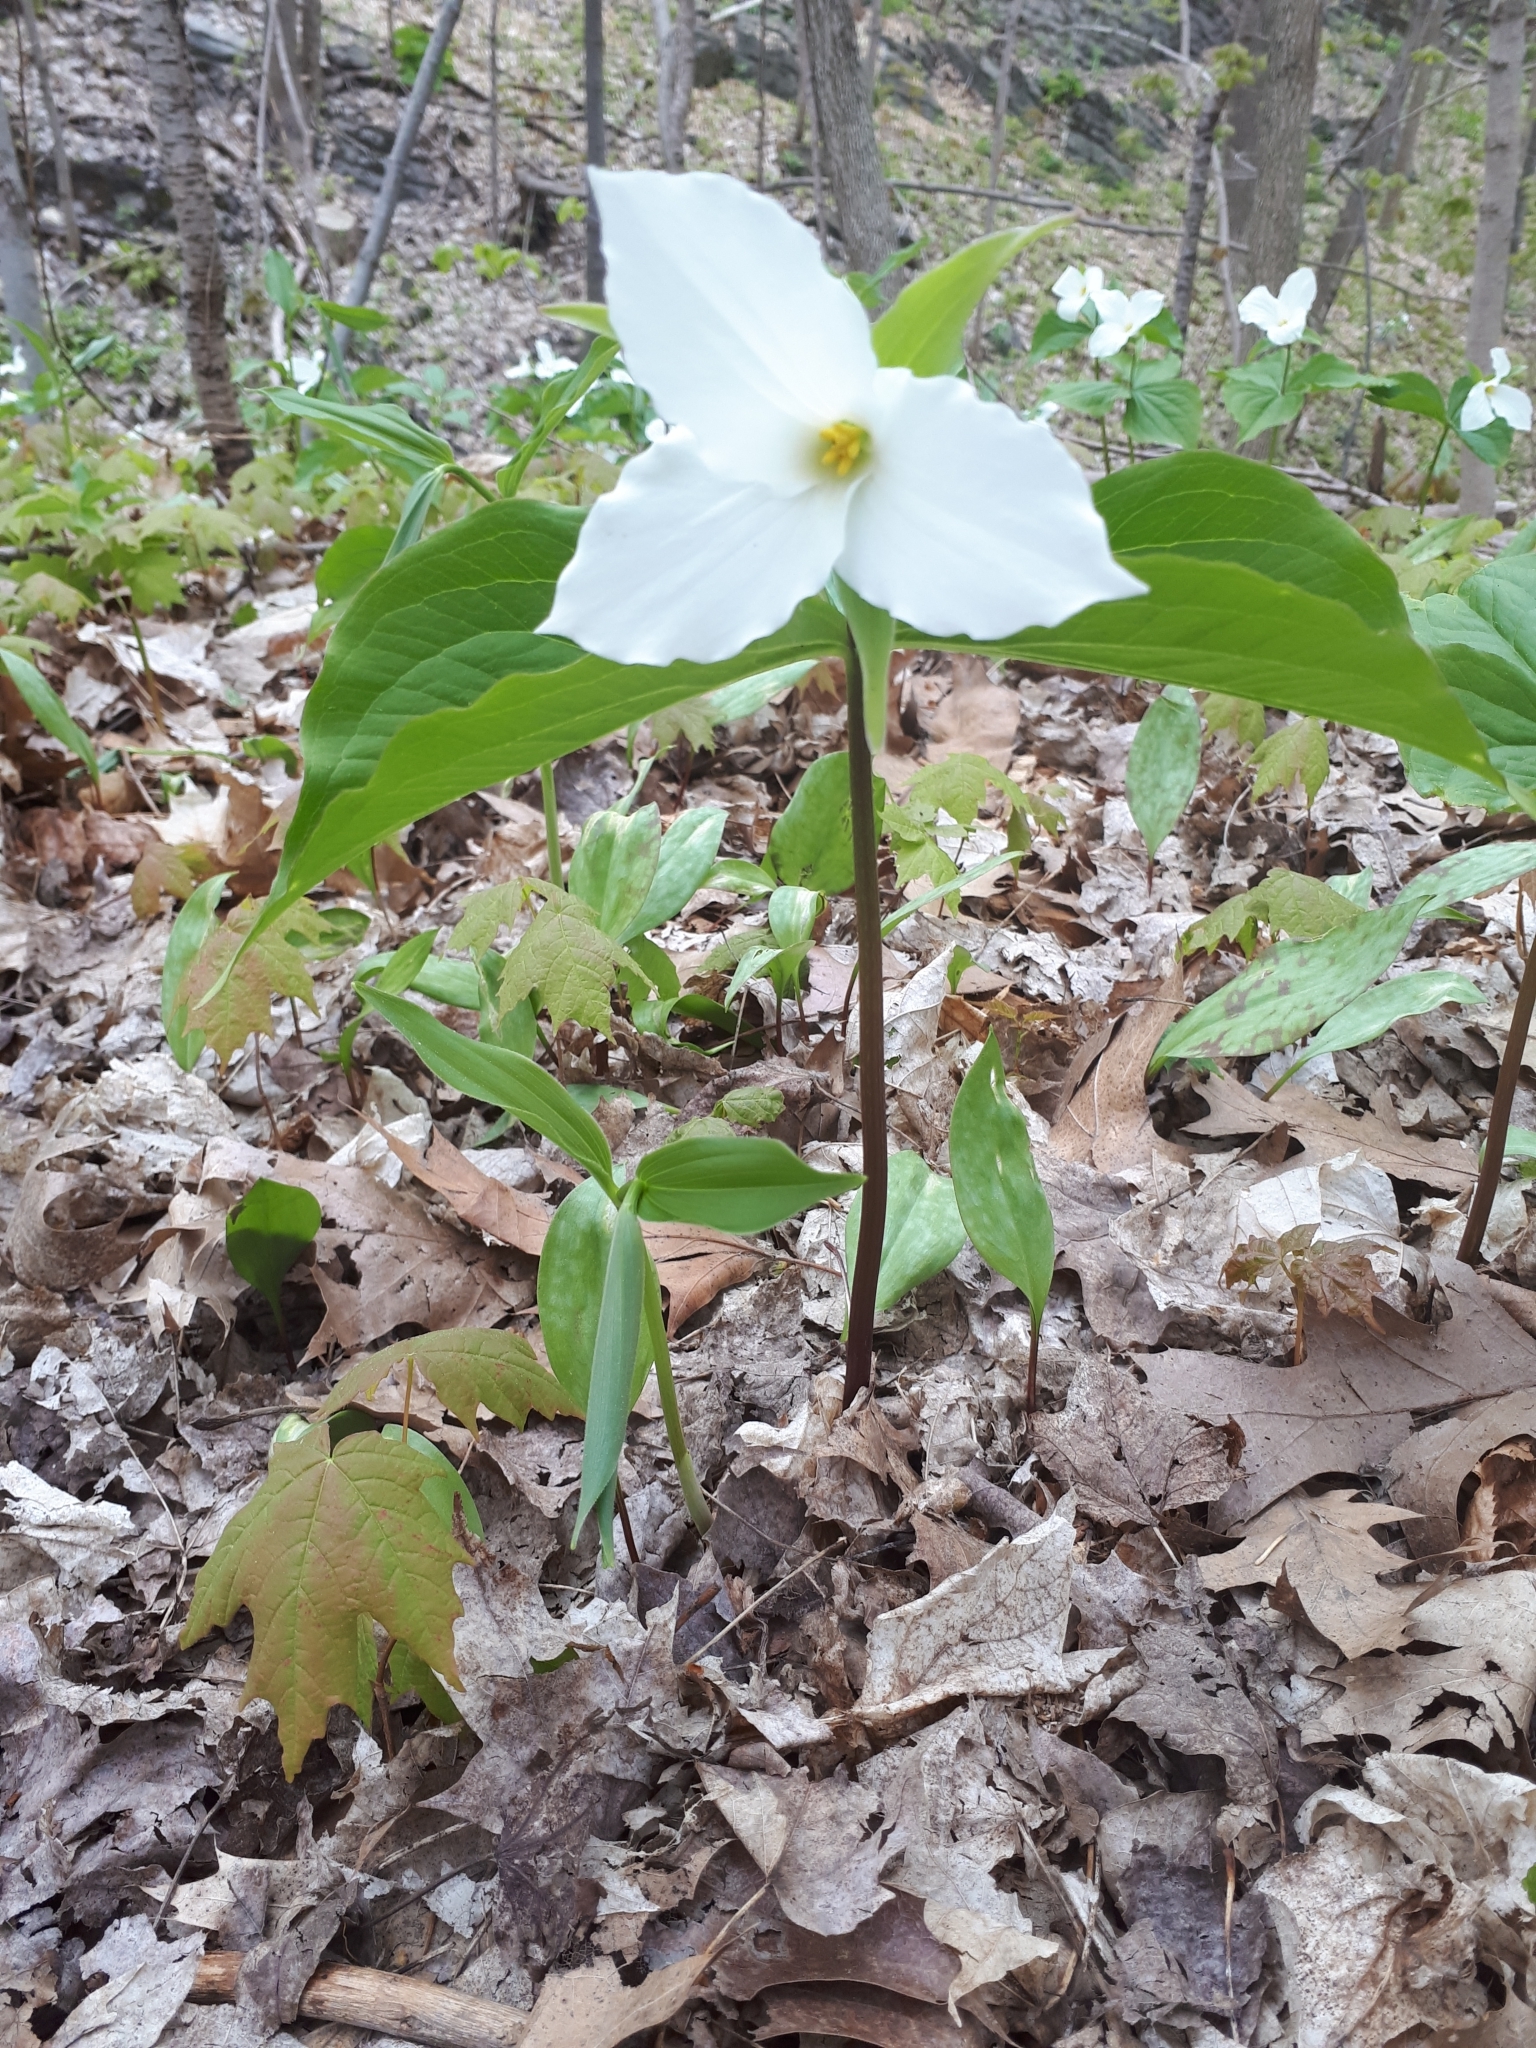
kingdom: Plantae
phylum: Tracheophyta
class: Liliopsida
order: Liliales
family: Melanthiaceae
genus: Trillium
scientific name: Trillium grandiflorum
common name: Great white trillium
